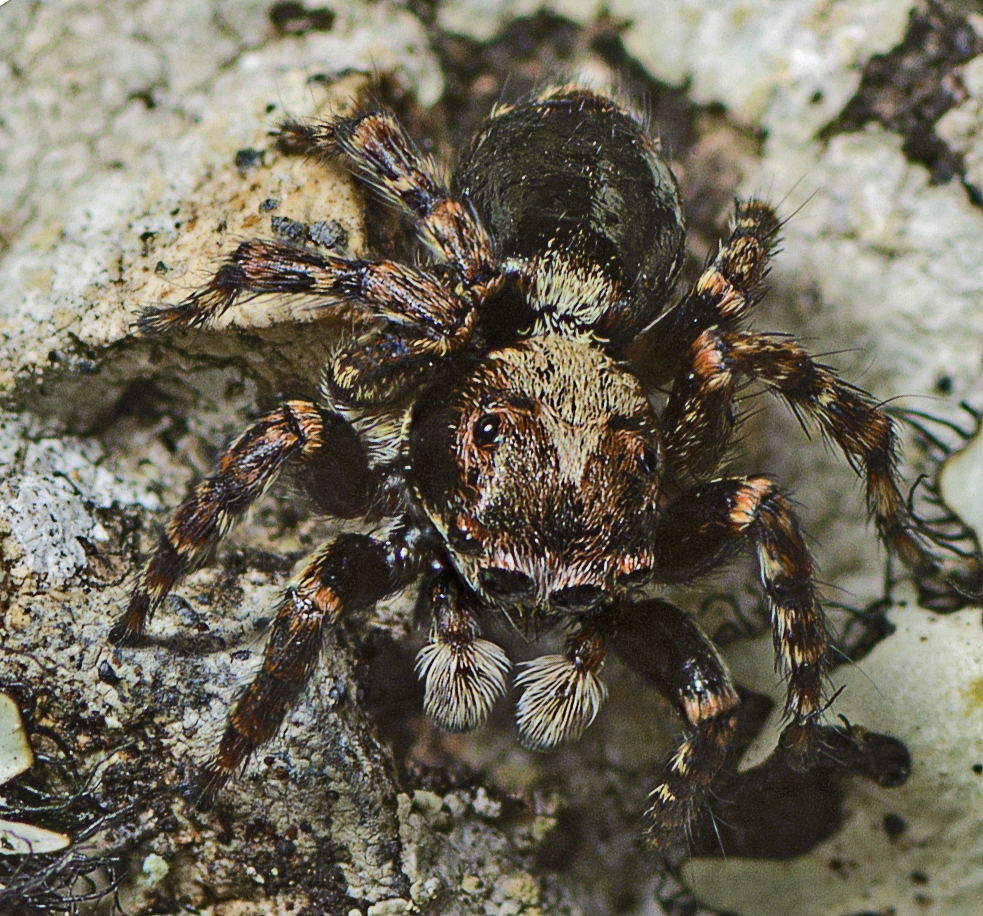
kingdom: Animalia
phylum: Arthropoda
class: Arachnida
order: Araneae
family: Salticidae
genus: Maratus
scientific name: Maratus expolitus
